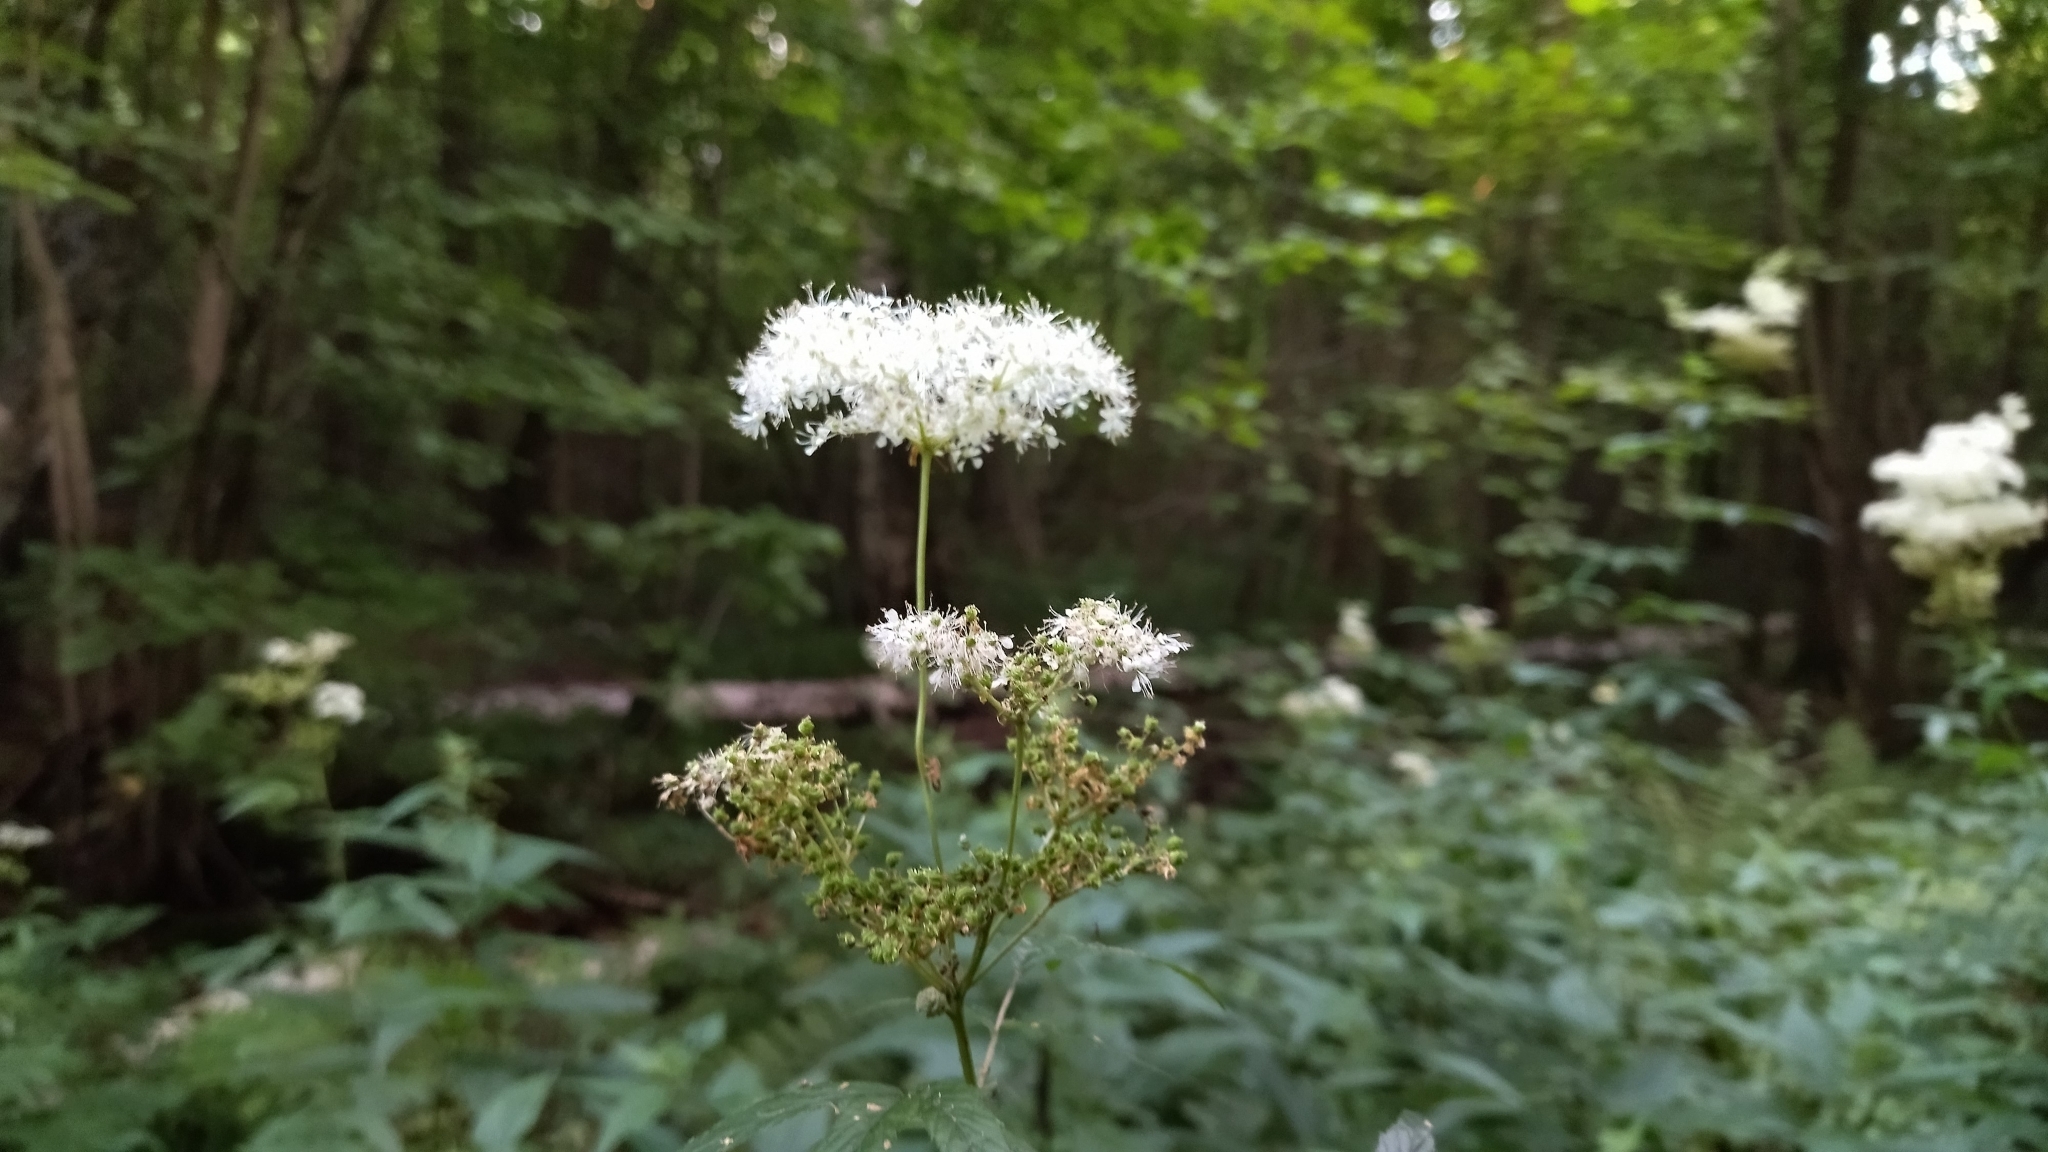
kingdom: Plantae
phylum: Tracheophyta
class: Magnoliopsida
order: Rosales
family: Rosaceae
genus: Filipendula
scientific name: Filipendula ulmaria
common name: Meadowsweet
